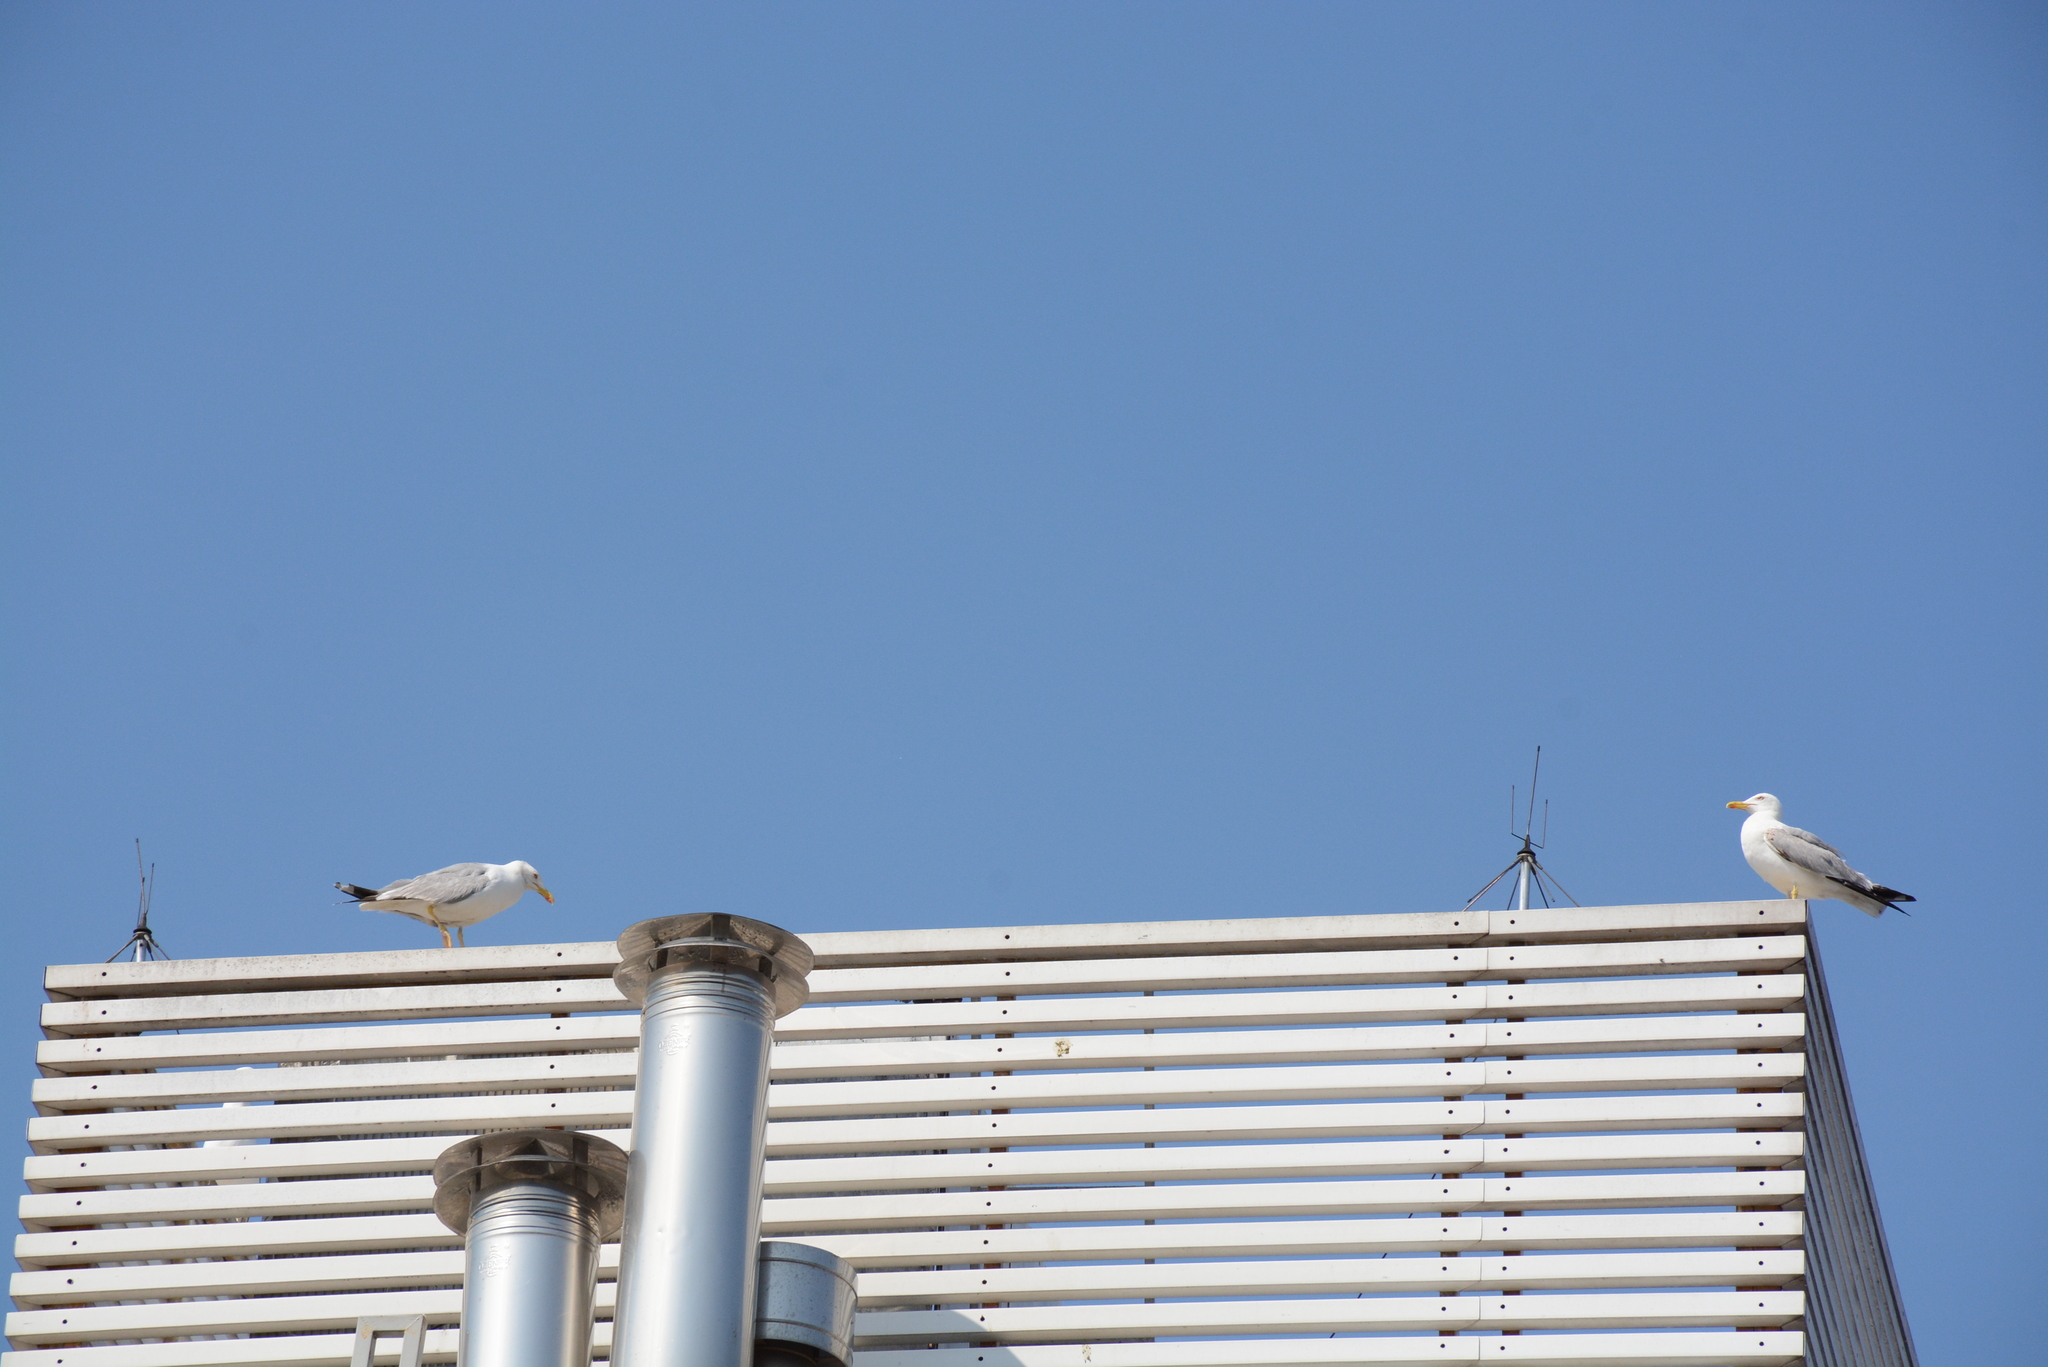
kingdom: Animalia
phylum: Chordata
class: Aves
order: Charadriiformes
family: Laridae
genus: Larus
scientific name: Larus michahellis
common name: Yellow-legged gull
